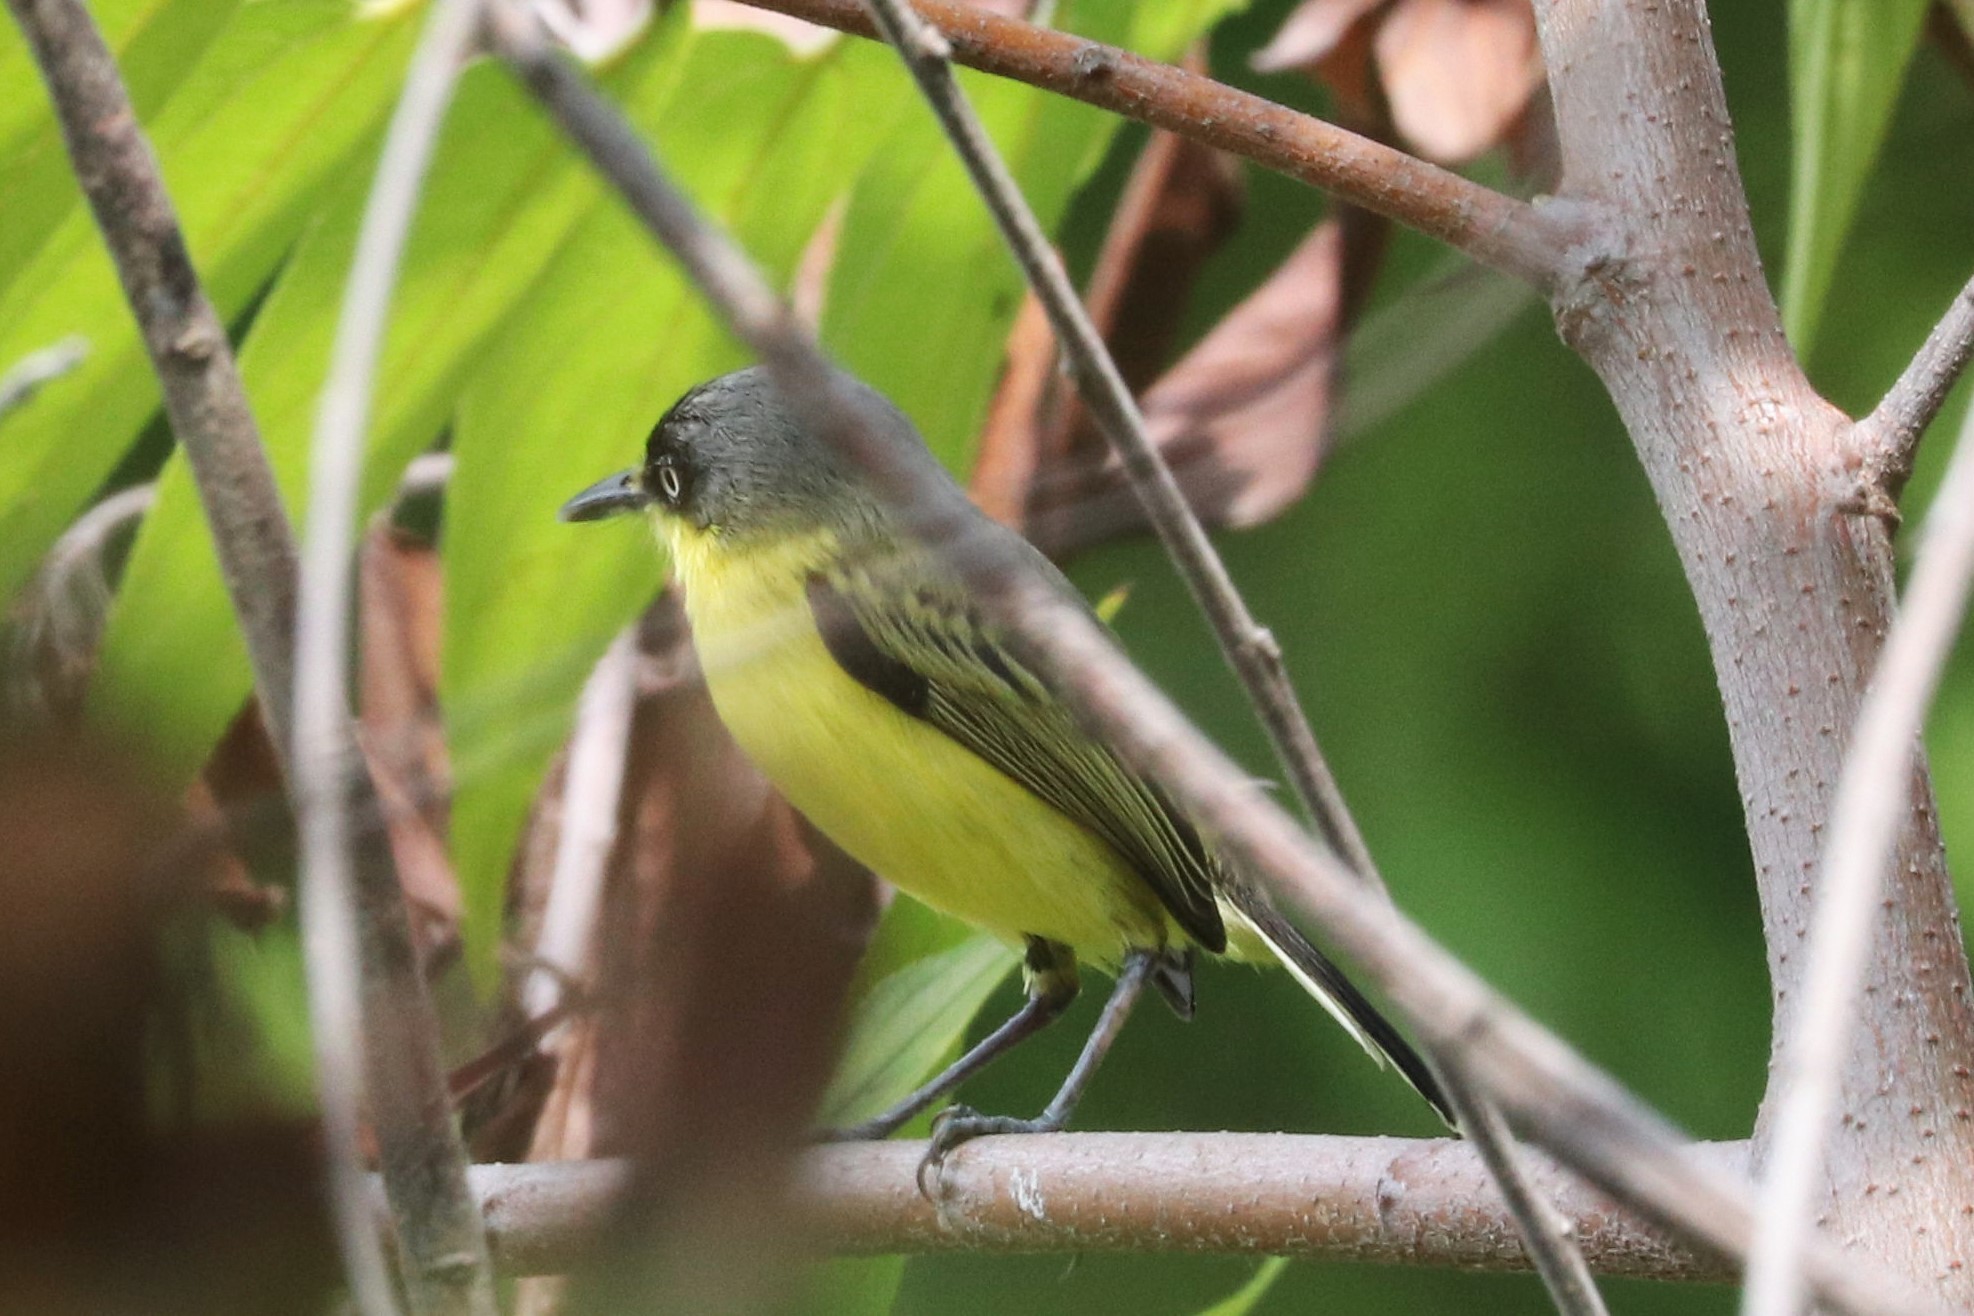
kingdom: Animalia
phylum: Chordata
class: Aves
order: Passeriformes
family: Tyrannidae
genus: Todirostrum
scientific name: Todirostrum cinereum
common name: Common tody-flycatcher
